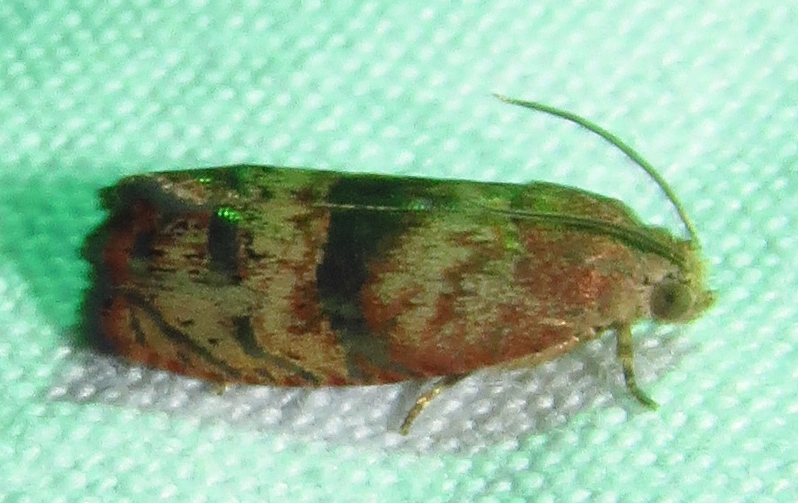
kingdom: Animalia
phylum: Arthropoda
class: Insecta
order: Lepidoptera
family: Tortricidae
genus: Cydia
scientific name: Cydia latiferreana
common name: Filbertworm moth
